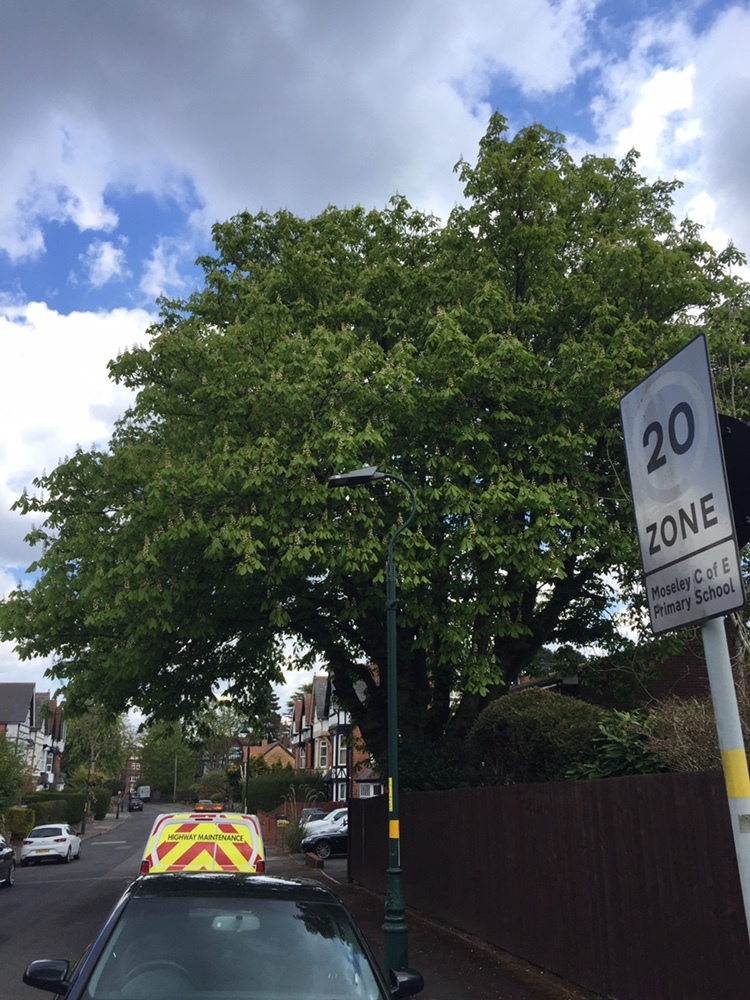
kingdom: Plantae
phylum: Tracheophyta
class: Magnoliopsida
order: Sapindales
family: Sapindaceae
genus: Aesculus
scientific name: Aesculus hippocastanum
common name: Horse-chestnut
